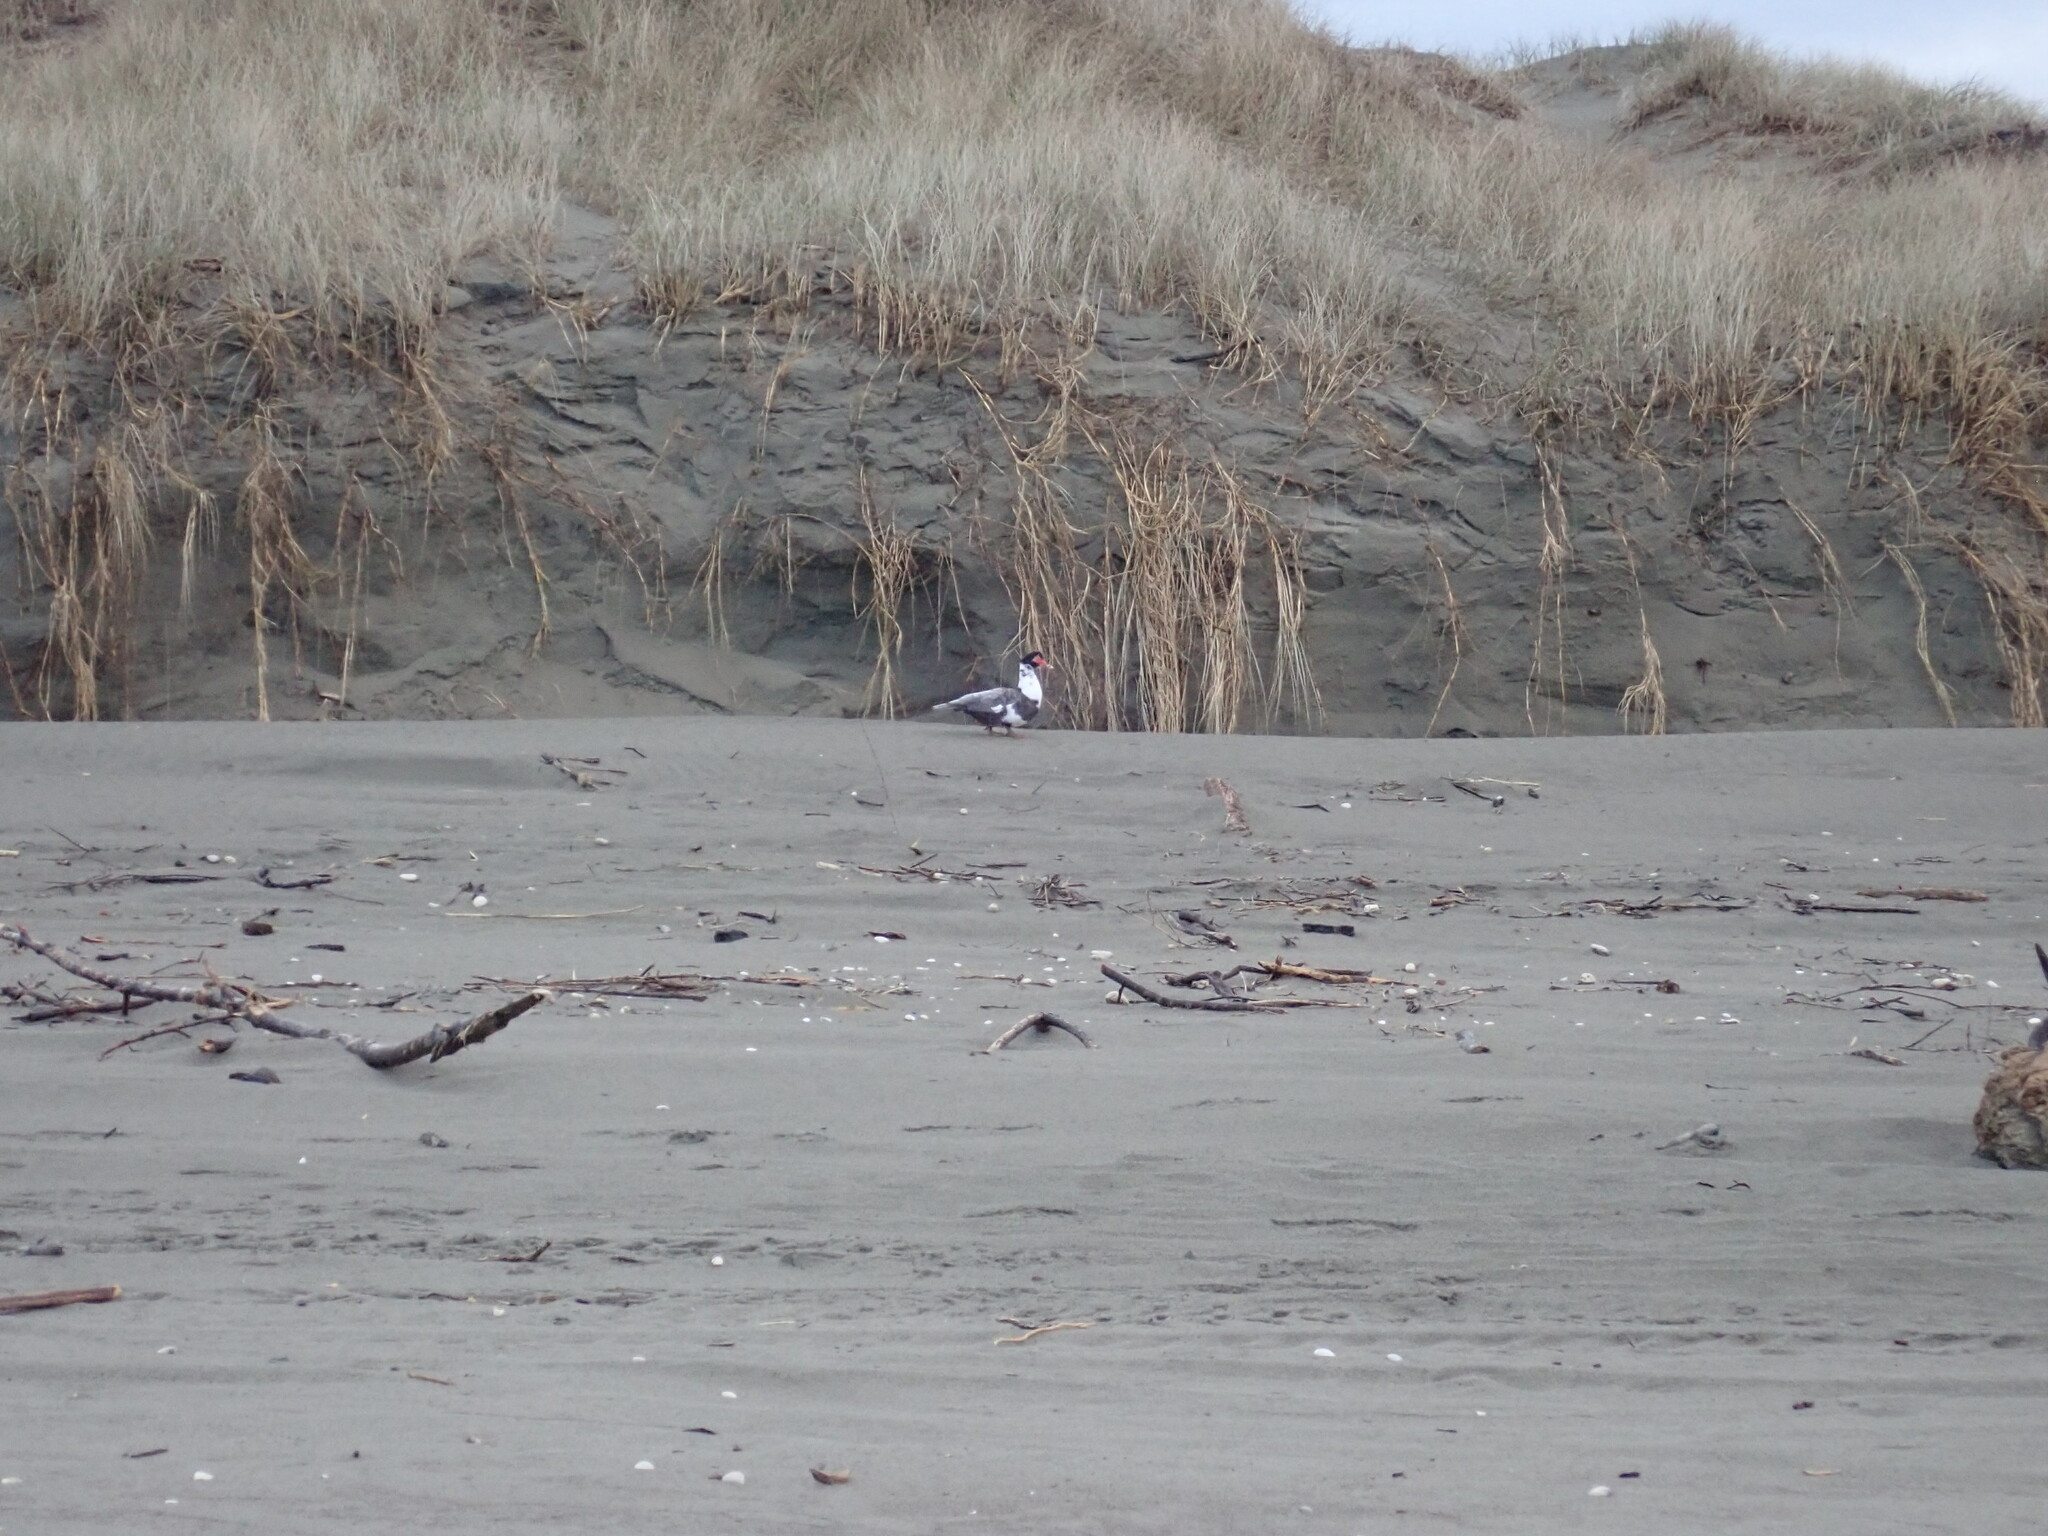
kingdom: Animalia
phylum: Chordata
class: Aves
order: Anseriformes
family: Anatidae
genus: Cairina
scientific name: Cairina moschata
